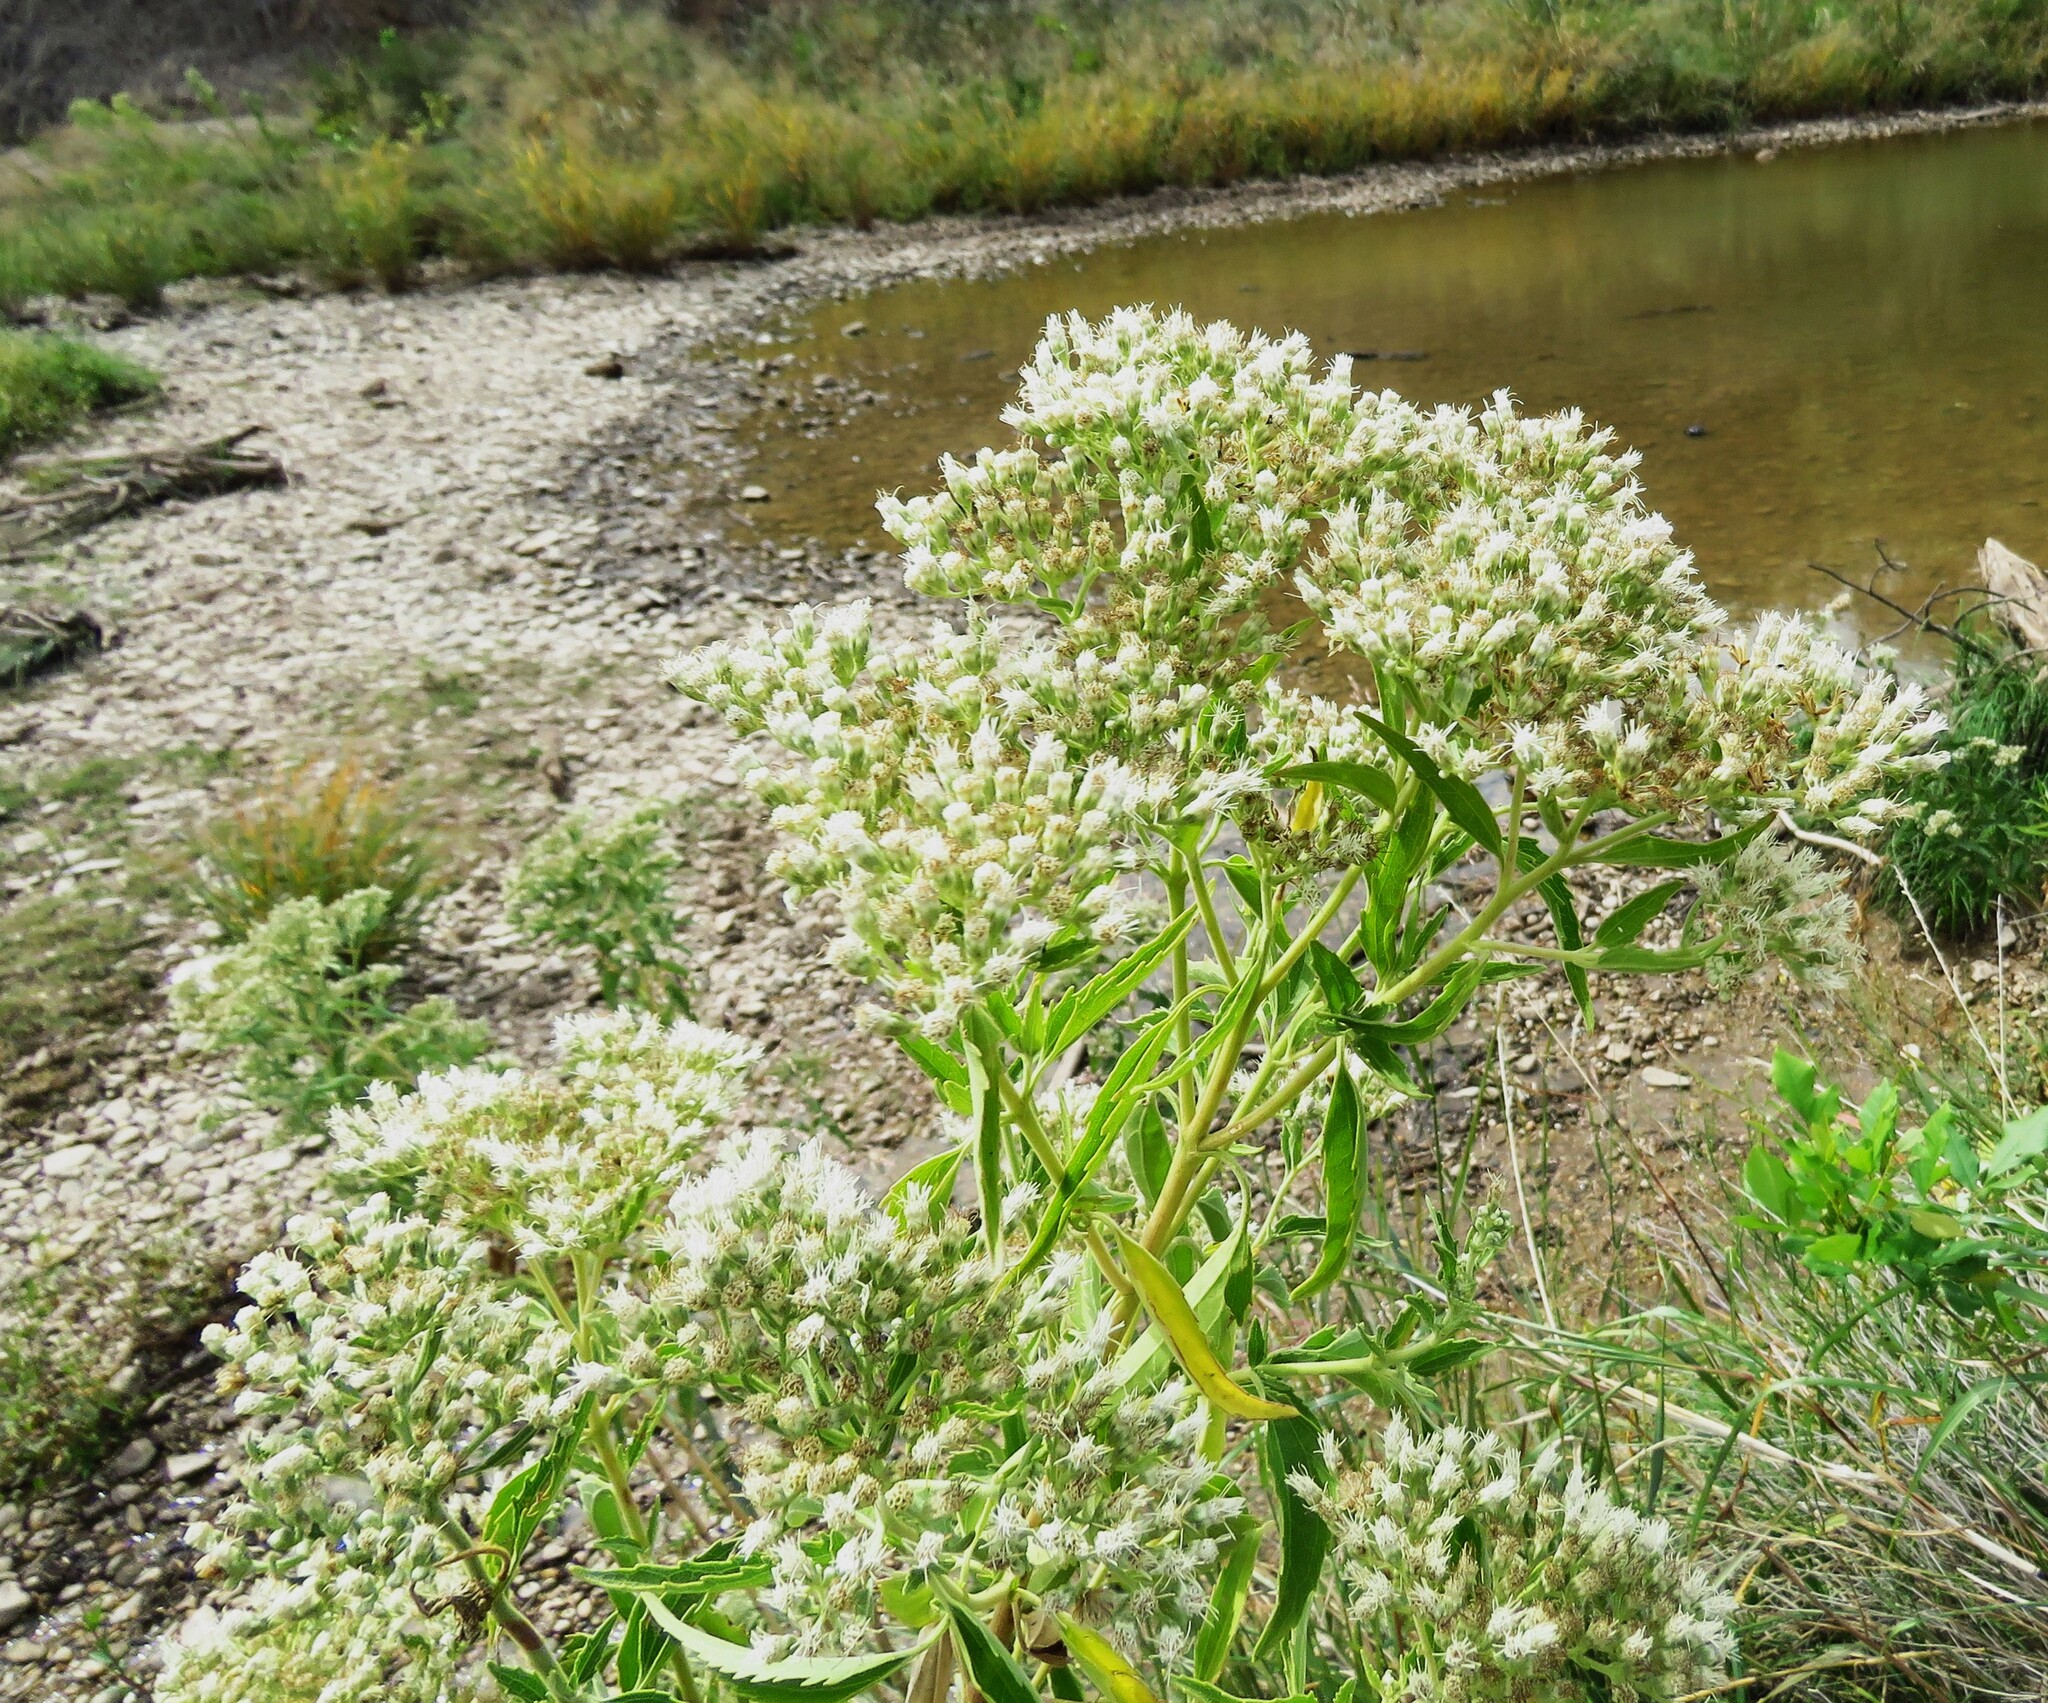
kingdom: Plantae
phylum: Tracheophyta
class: Magnoliopsida
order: Asterales
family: Asteraceae
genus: Eupatorium
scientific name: Eupatorium serotinum
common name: Late boneset
